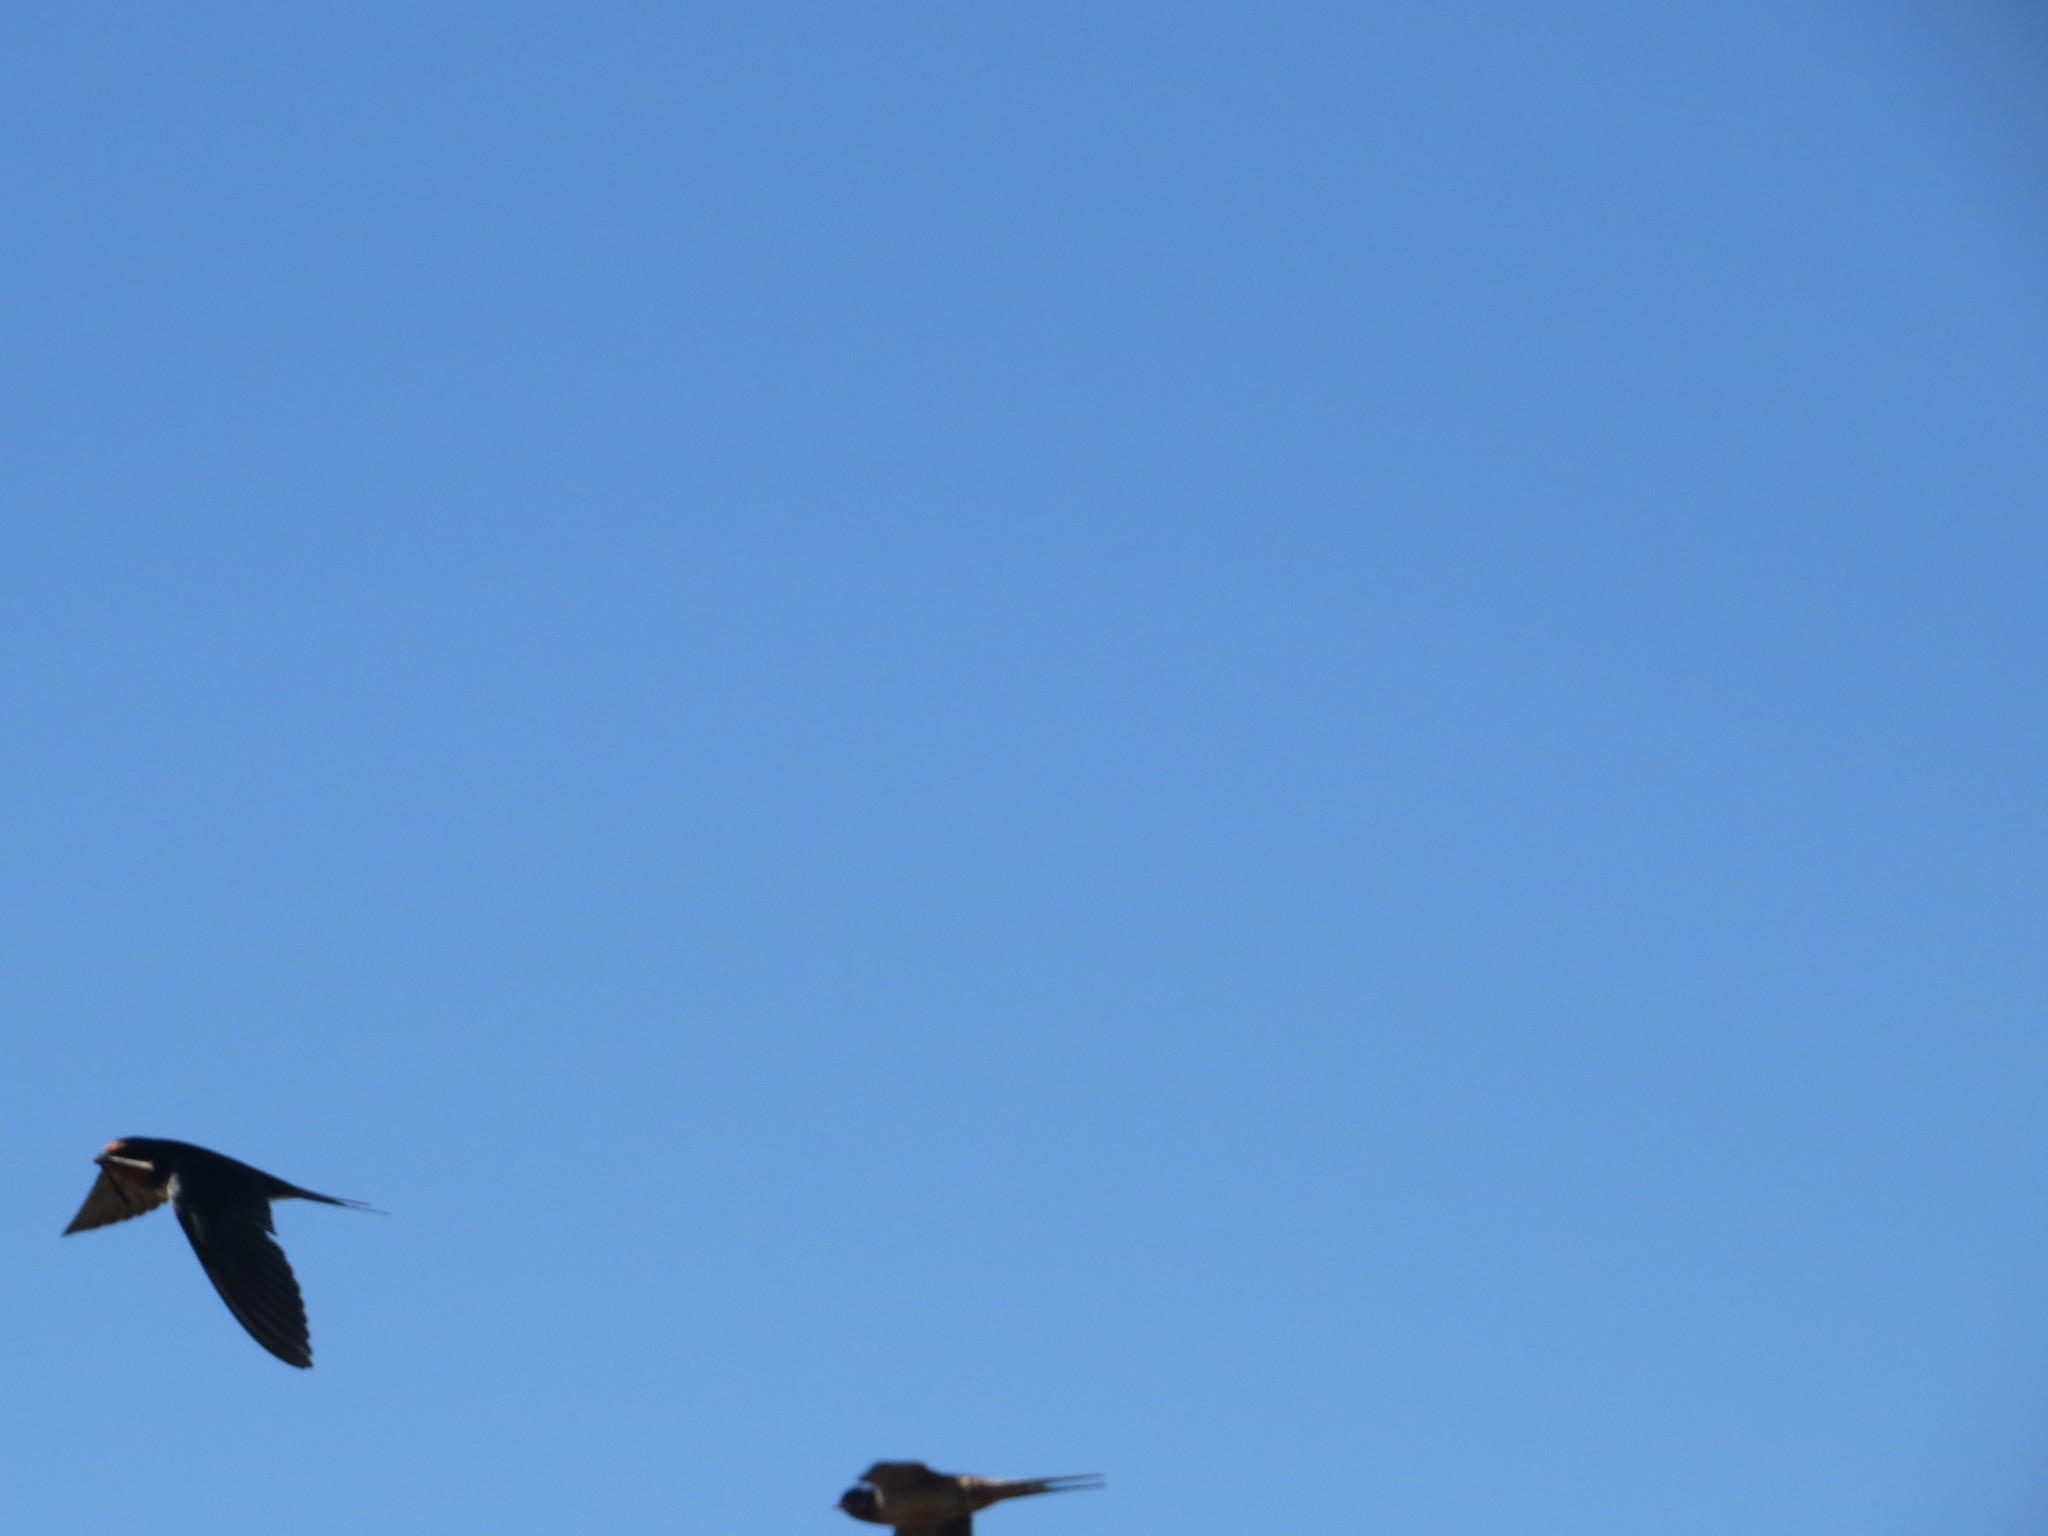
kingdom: Animalia
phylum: Chordata
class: Aves
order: Passeriformes
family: Hirundinidae
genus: Hirundo
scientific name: Hirundo rustica
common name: Barn swallow
